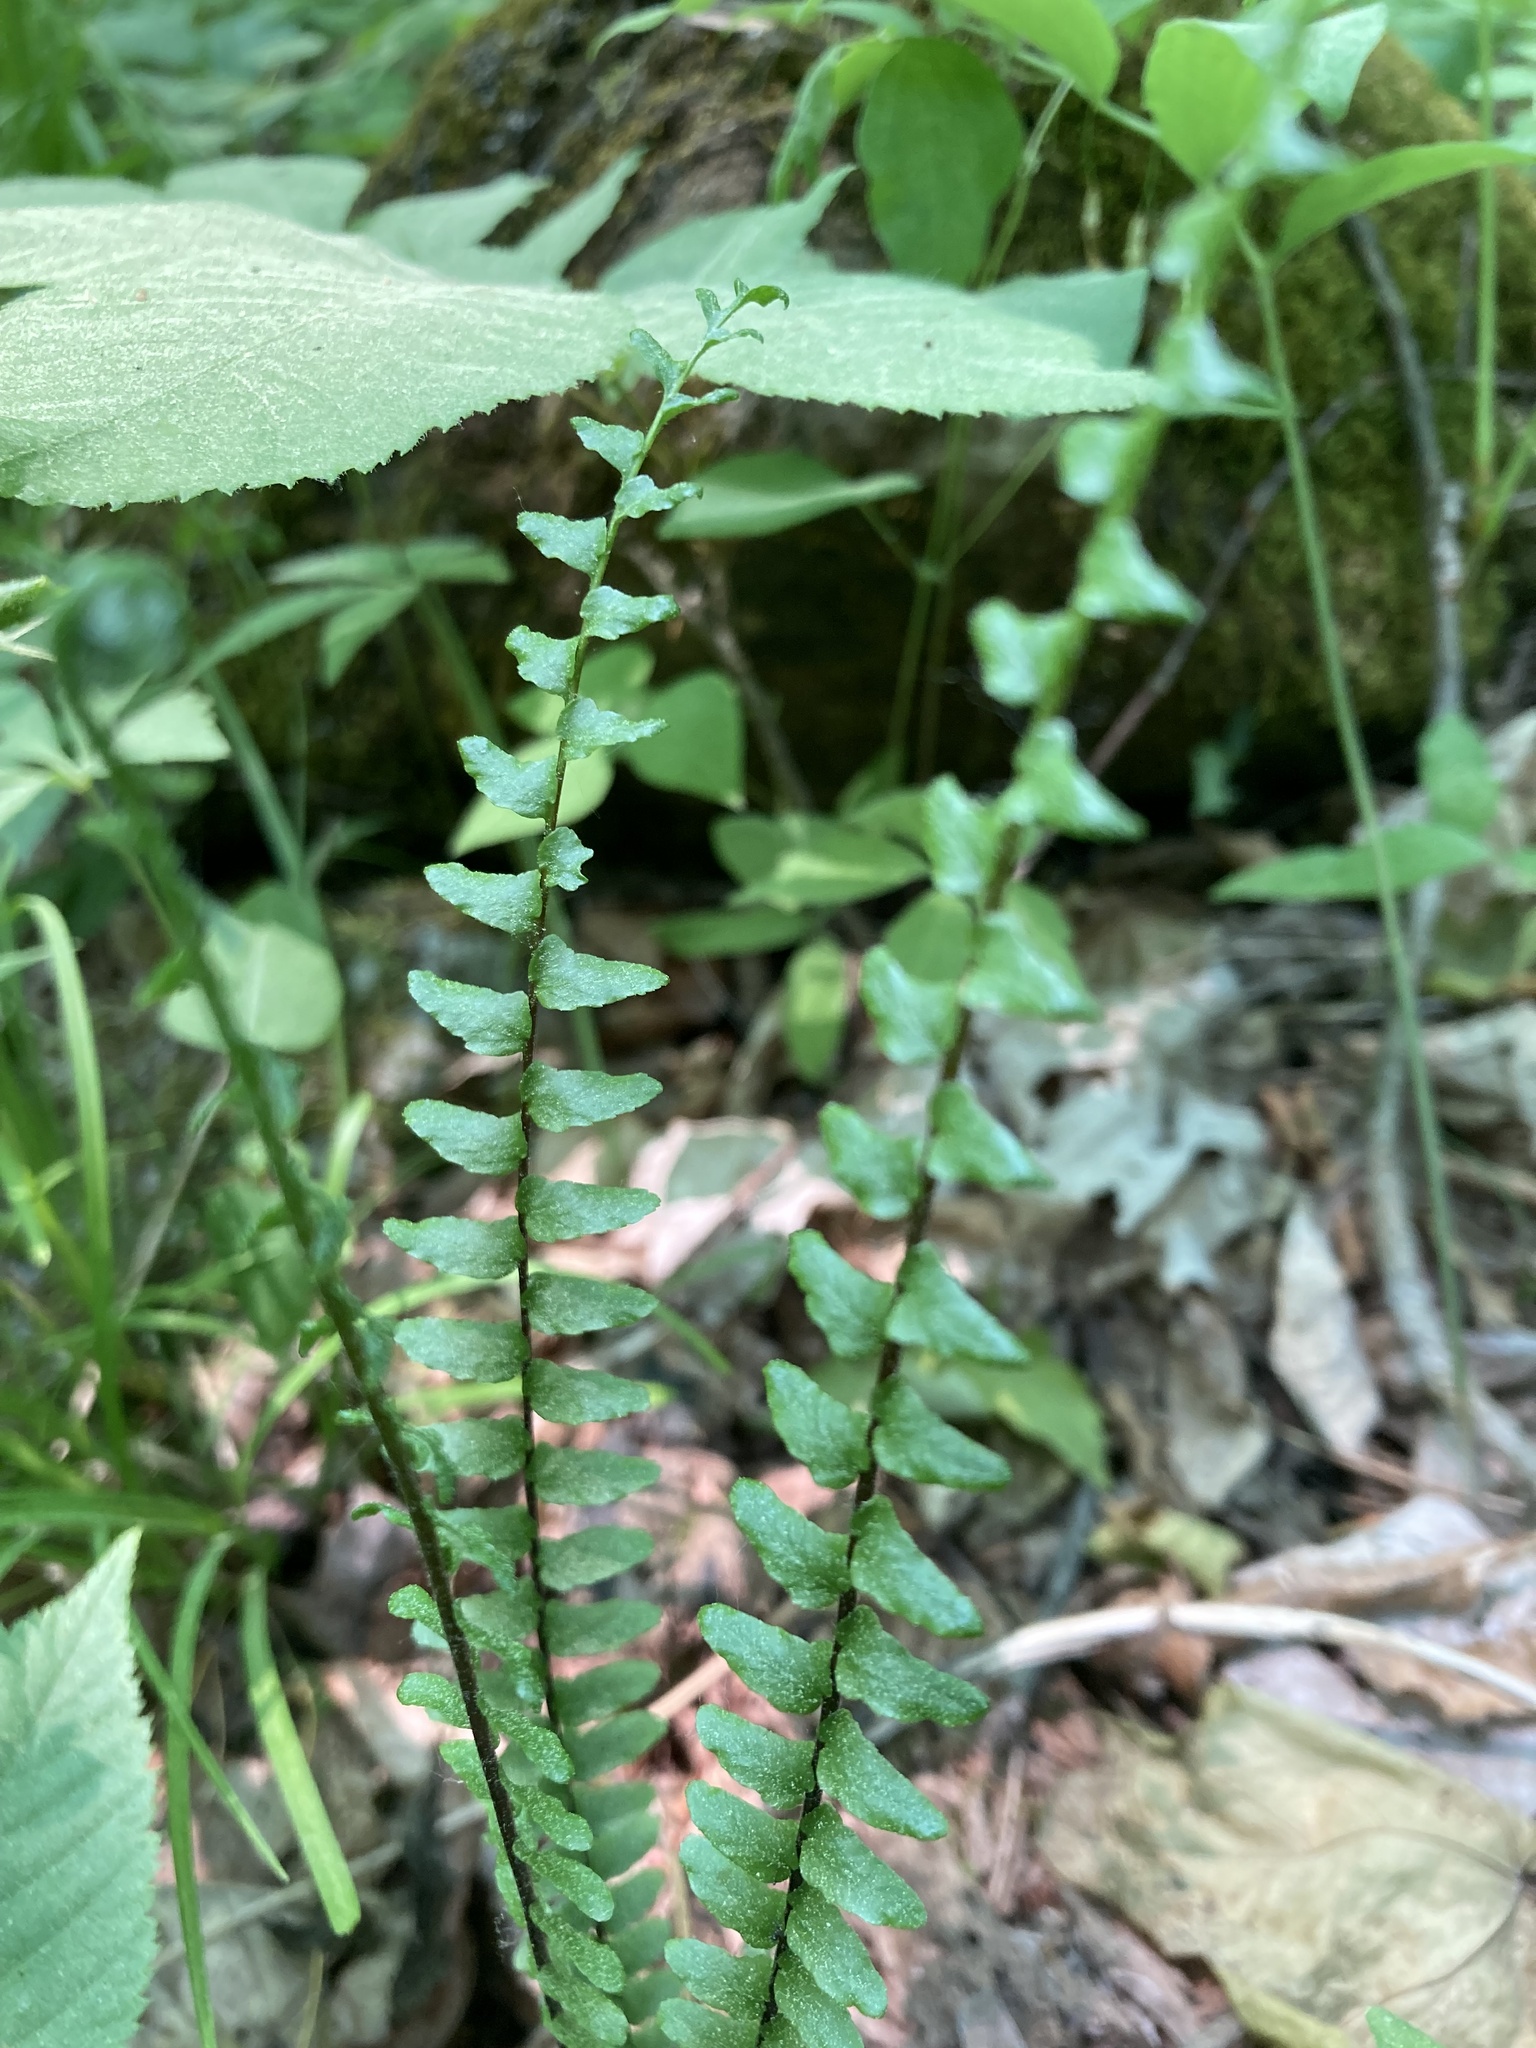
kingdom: Plantae
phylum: Tracheophyta
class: Polypodiopsida
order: Polypodiales
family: Aspleniaceae
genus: Asplenium
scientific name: Asplenium platyneuron
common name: Ebony spleenwort
